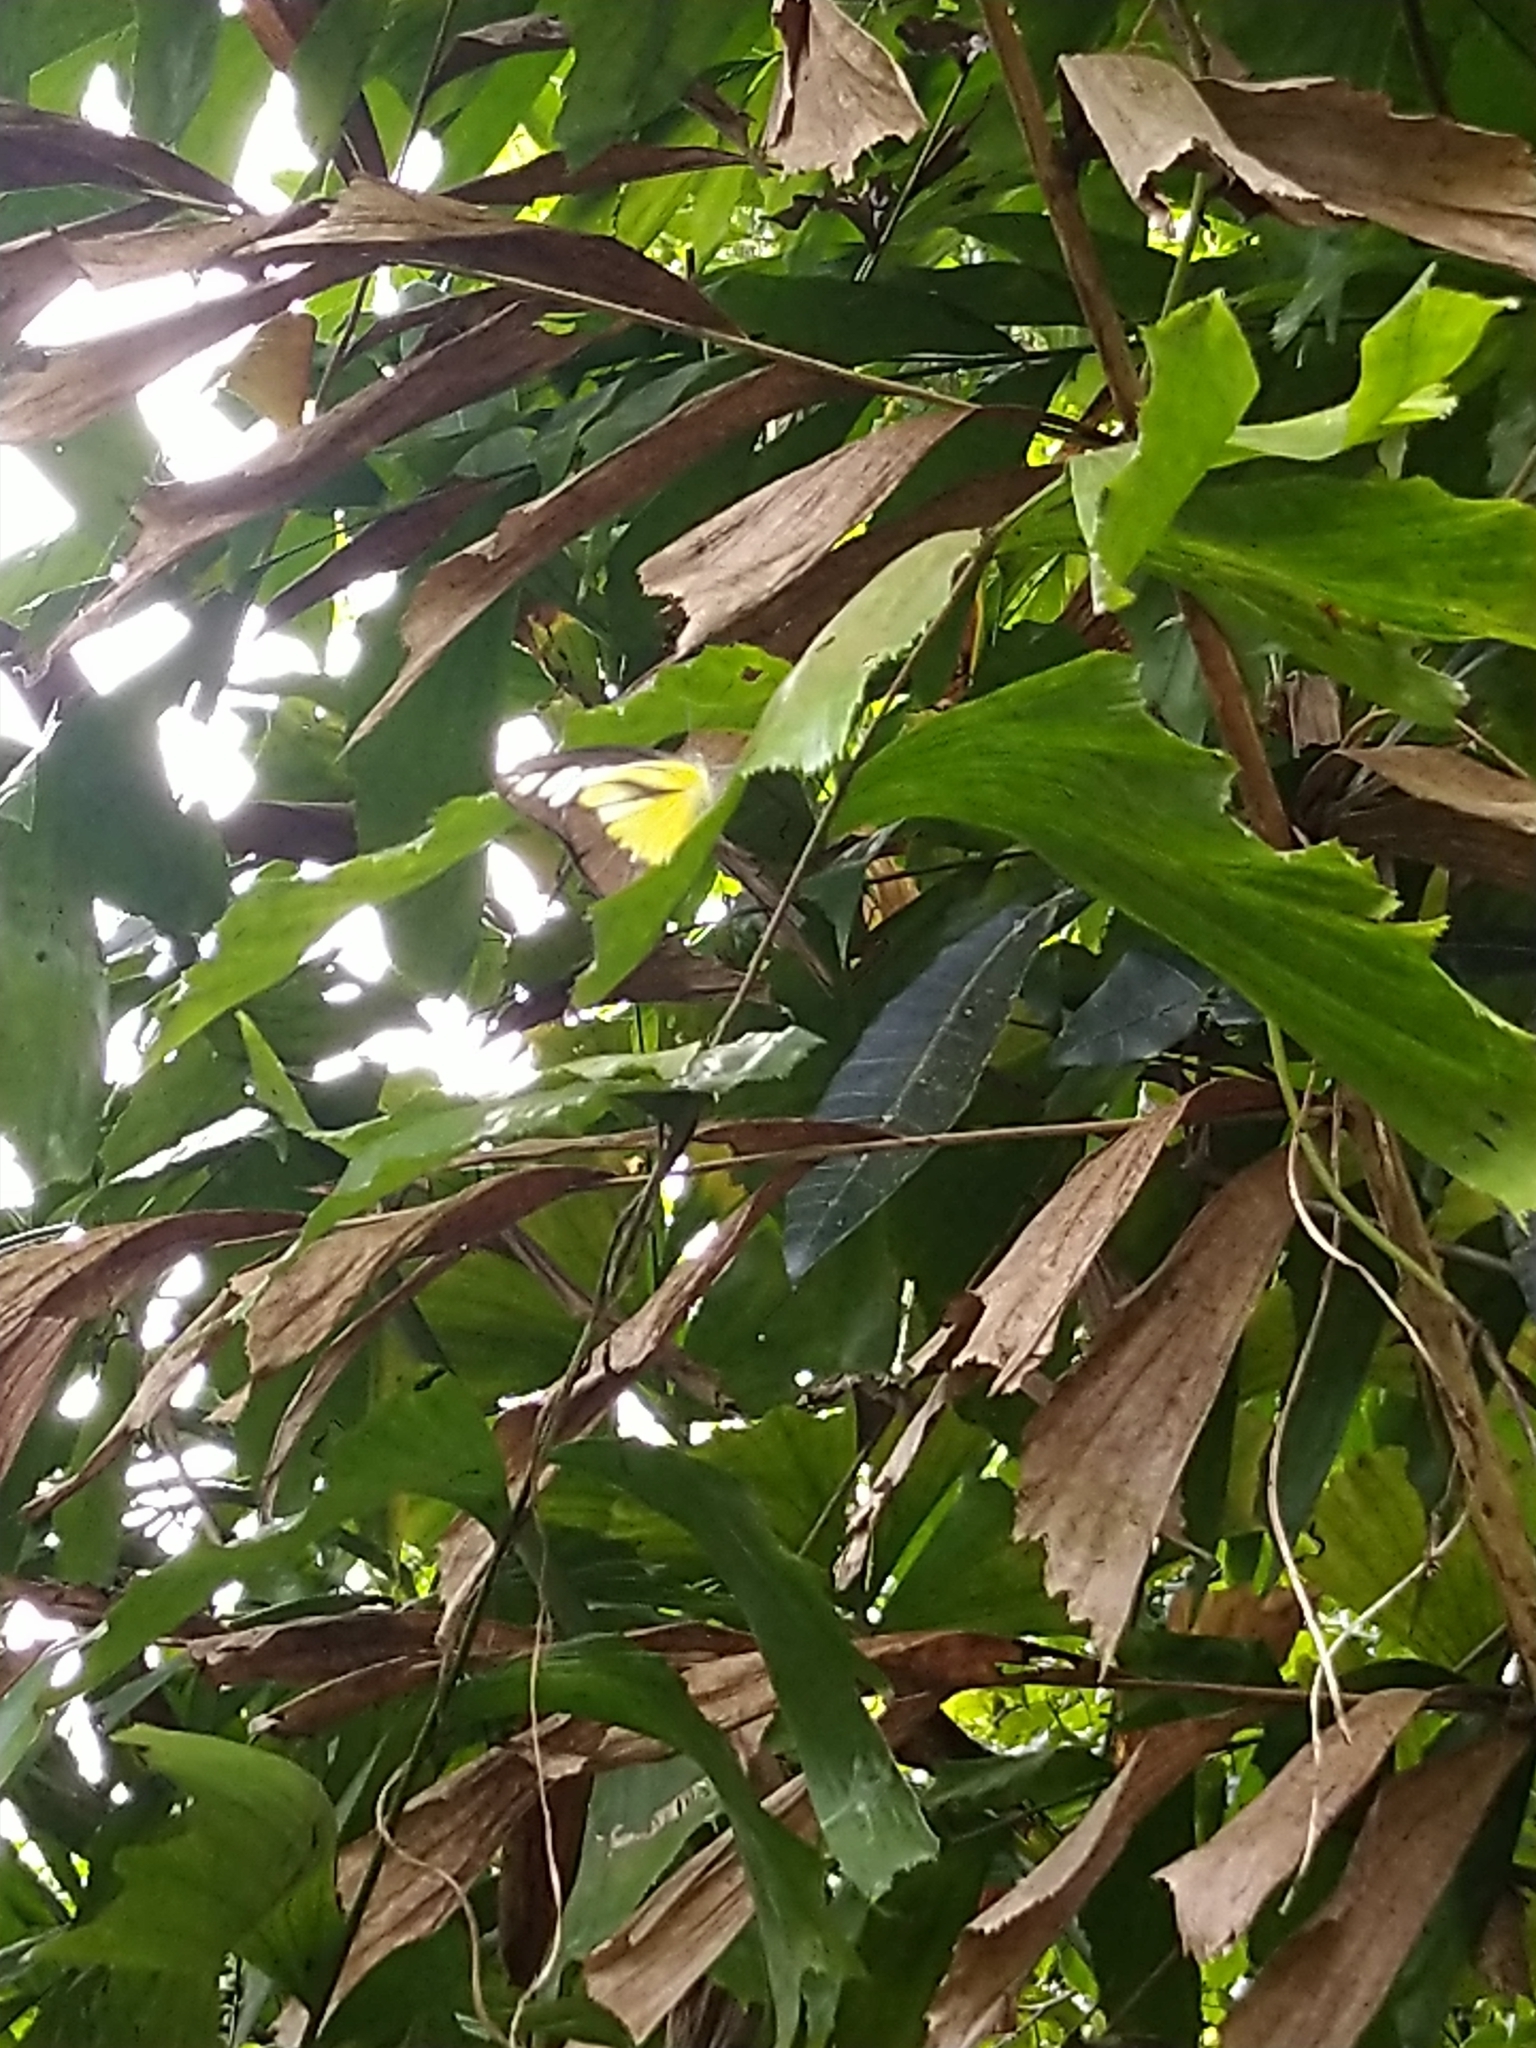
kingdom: Animalia
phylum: Arthropoda
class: Insecta
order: Lepidoptera
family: Pieridae
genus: Appias
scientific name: Appias lyncida
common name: Chocolate albatross
